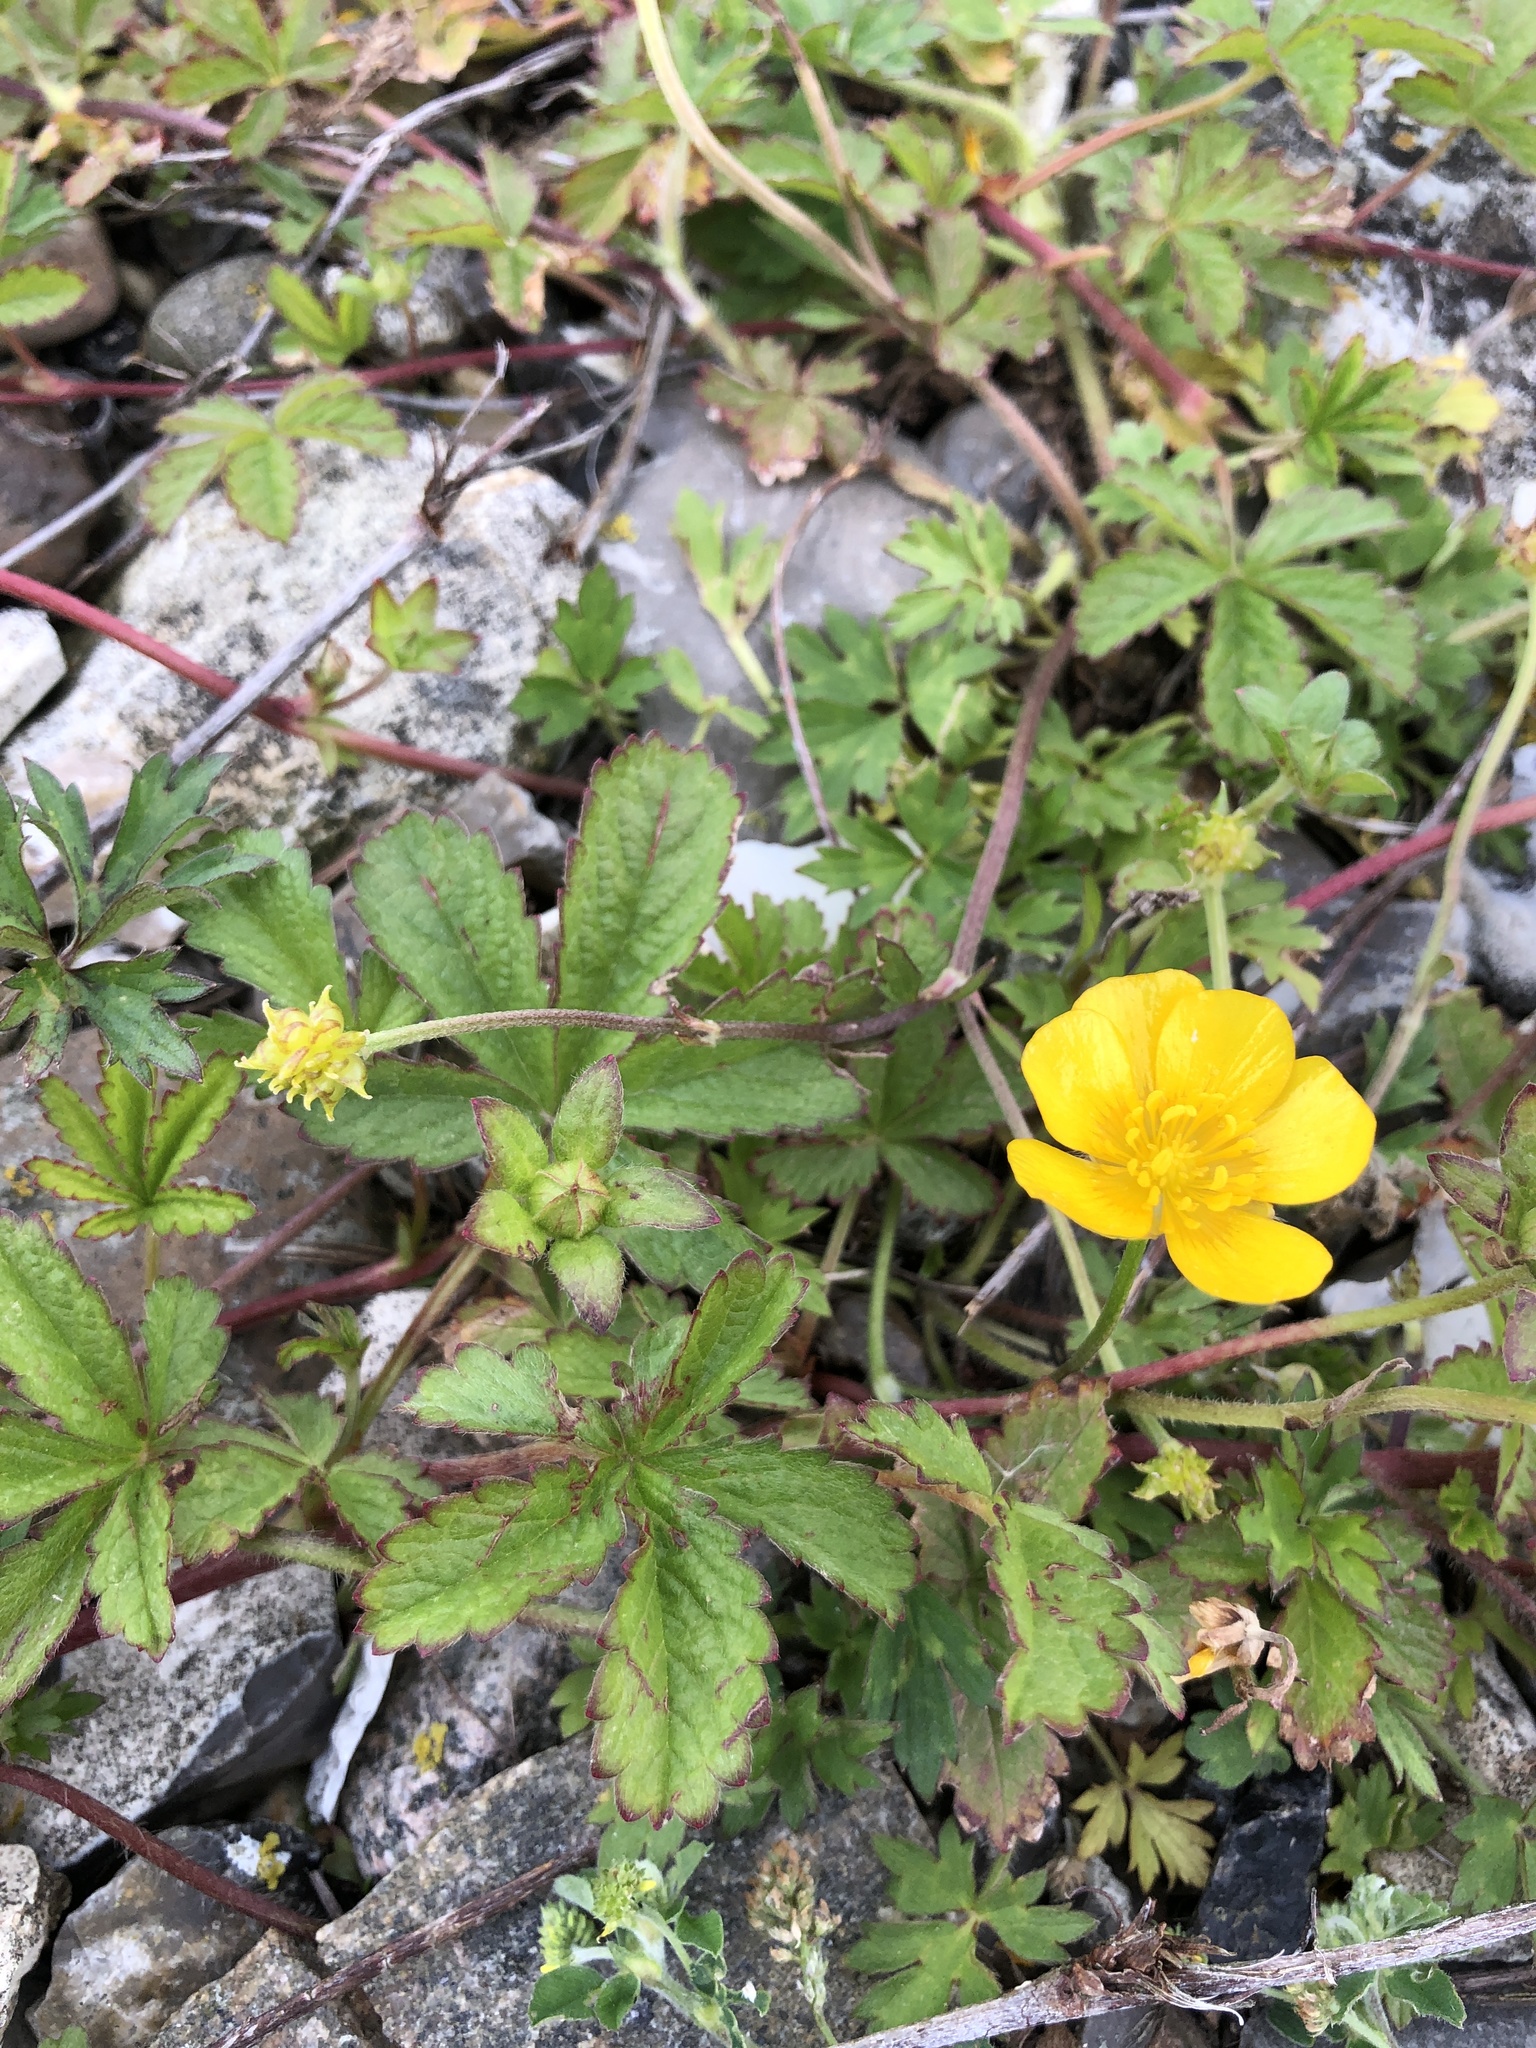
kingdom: Plantae
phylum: Tracheophyta
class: Magnoliopsida
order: Rosales
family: Rosaceae
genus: Potentilla
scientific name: Potentilla reptans
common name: Creeping cinquefoil
